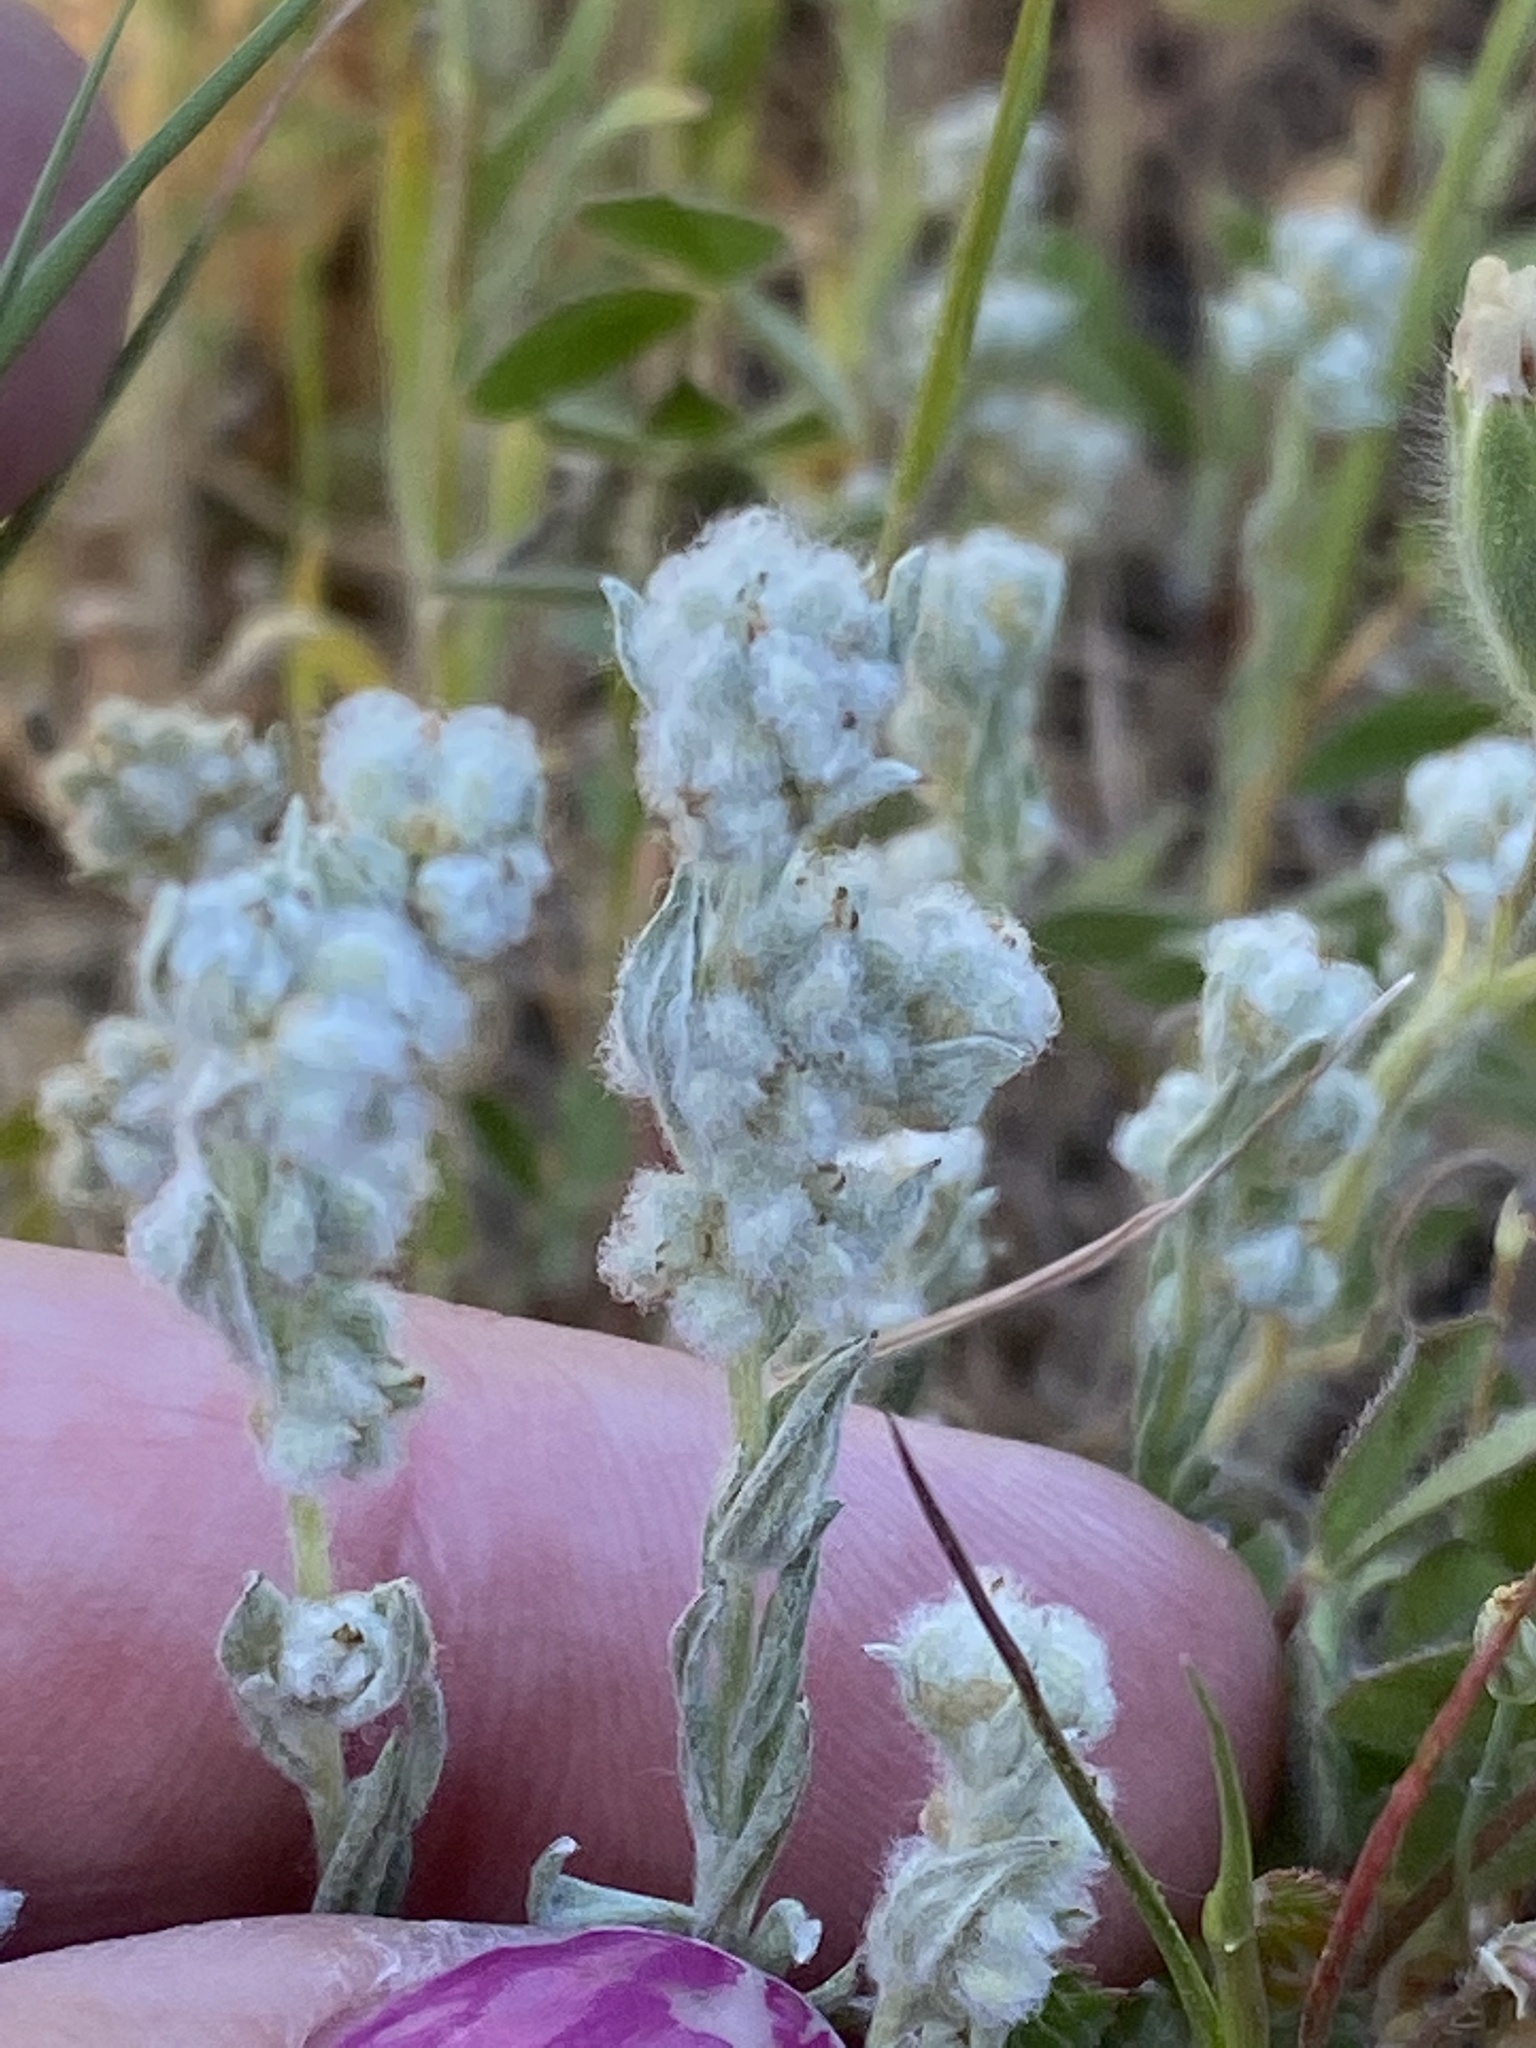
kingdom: Plantae
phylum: Tracheophyta
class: Magnoliopsida
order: Asterales
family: Asteraceae
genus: Bombycilaena
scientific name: Bombycilaena californica
